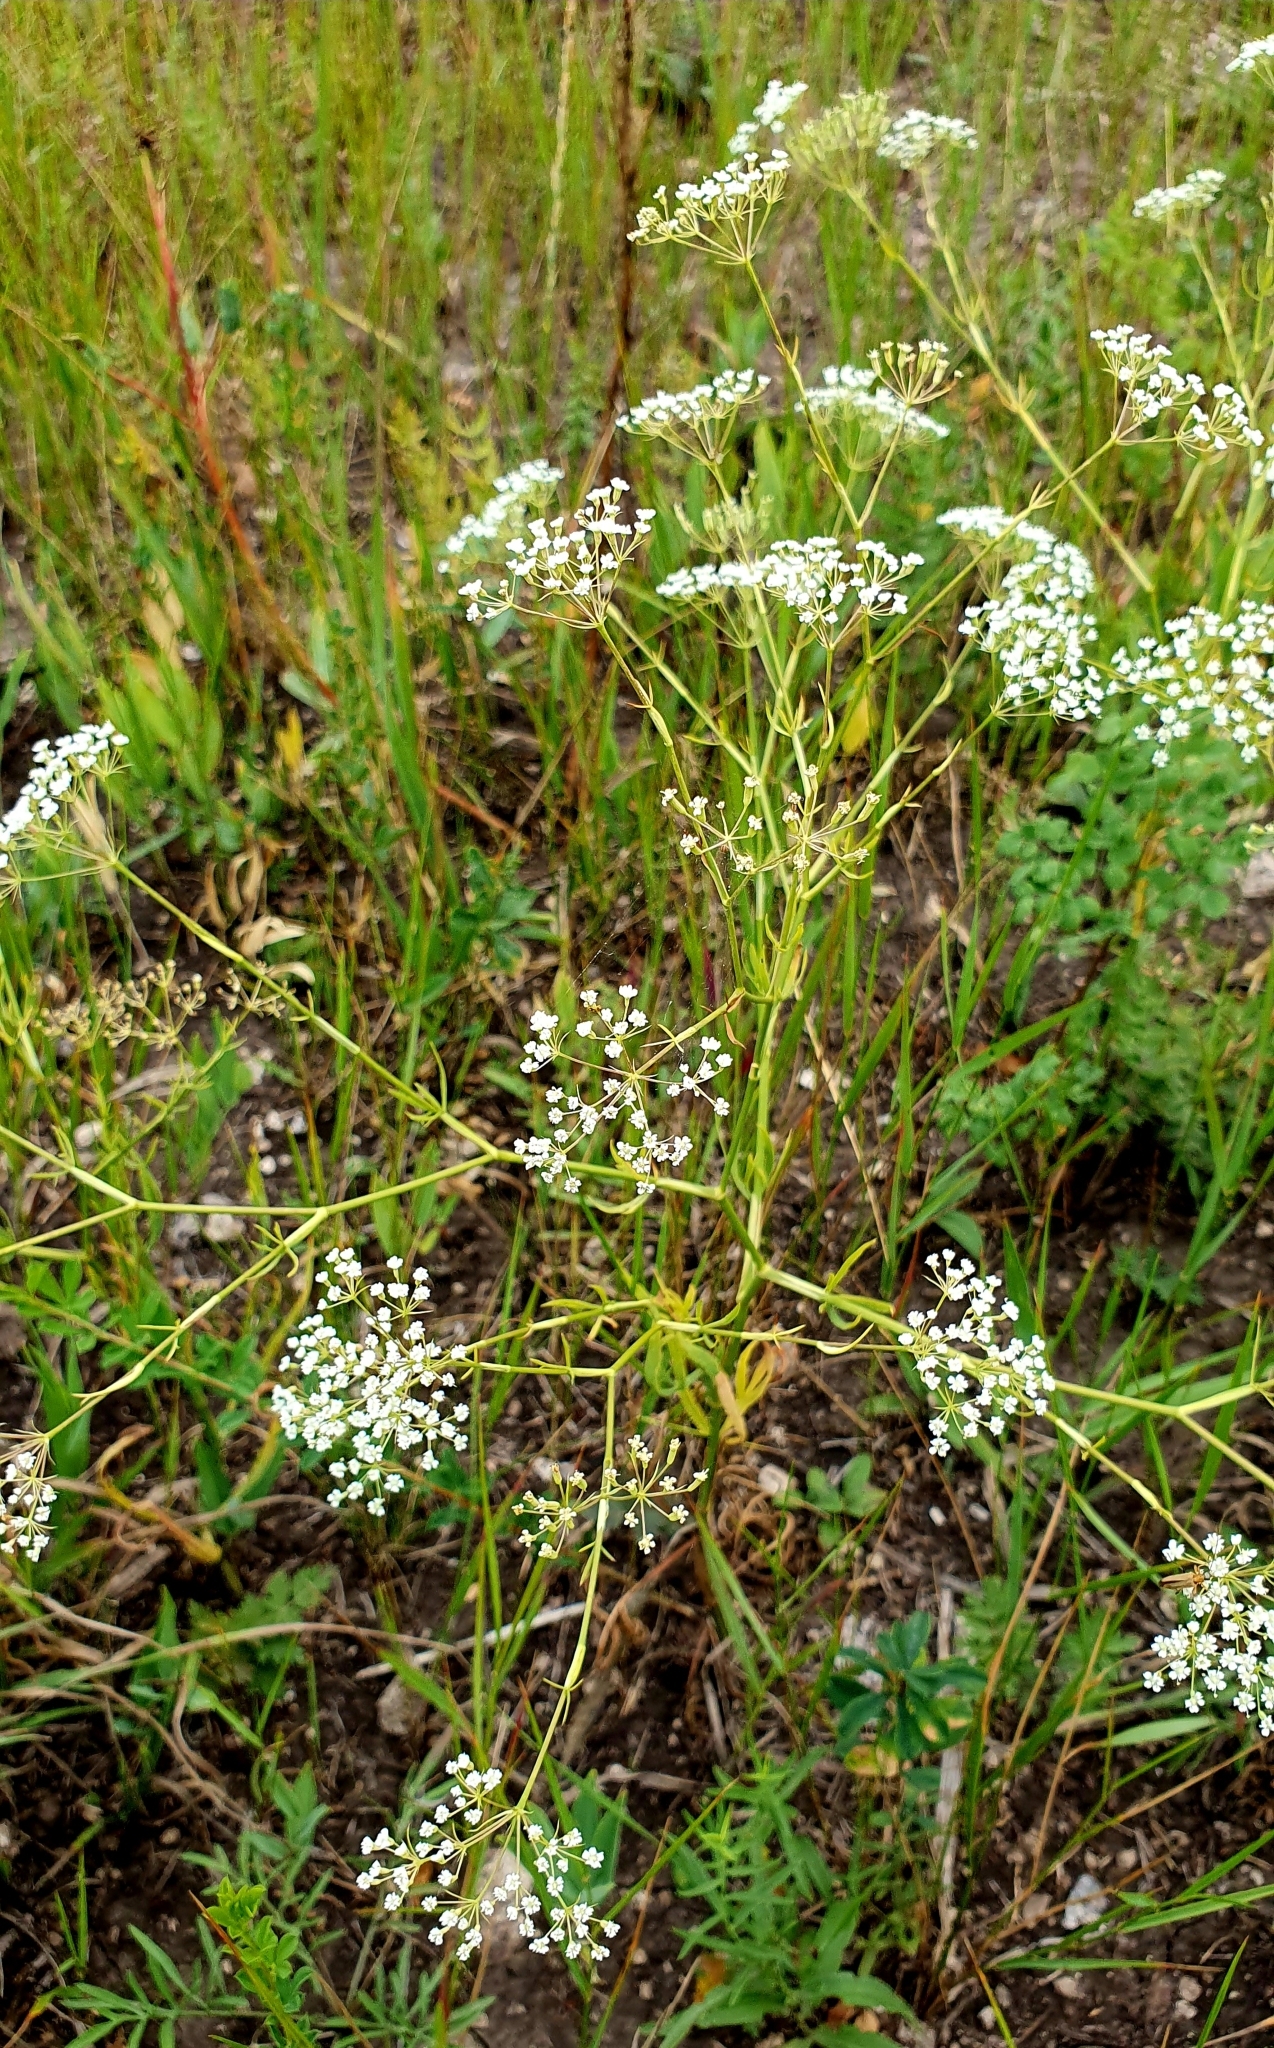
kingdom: Plantae
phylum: Tracheophyta
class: Magnoliopsida
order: Apiales
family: Apiaceae
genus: Falcaria
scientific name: Falcaria vulgaris
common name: Longleaf
